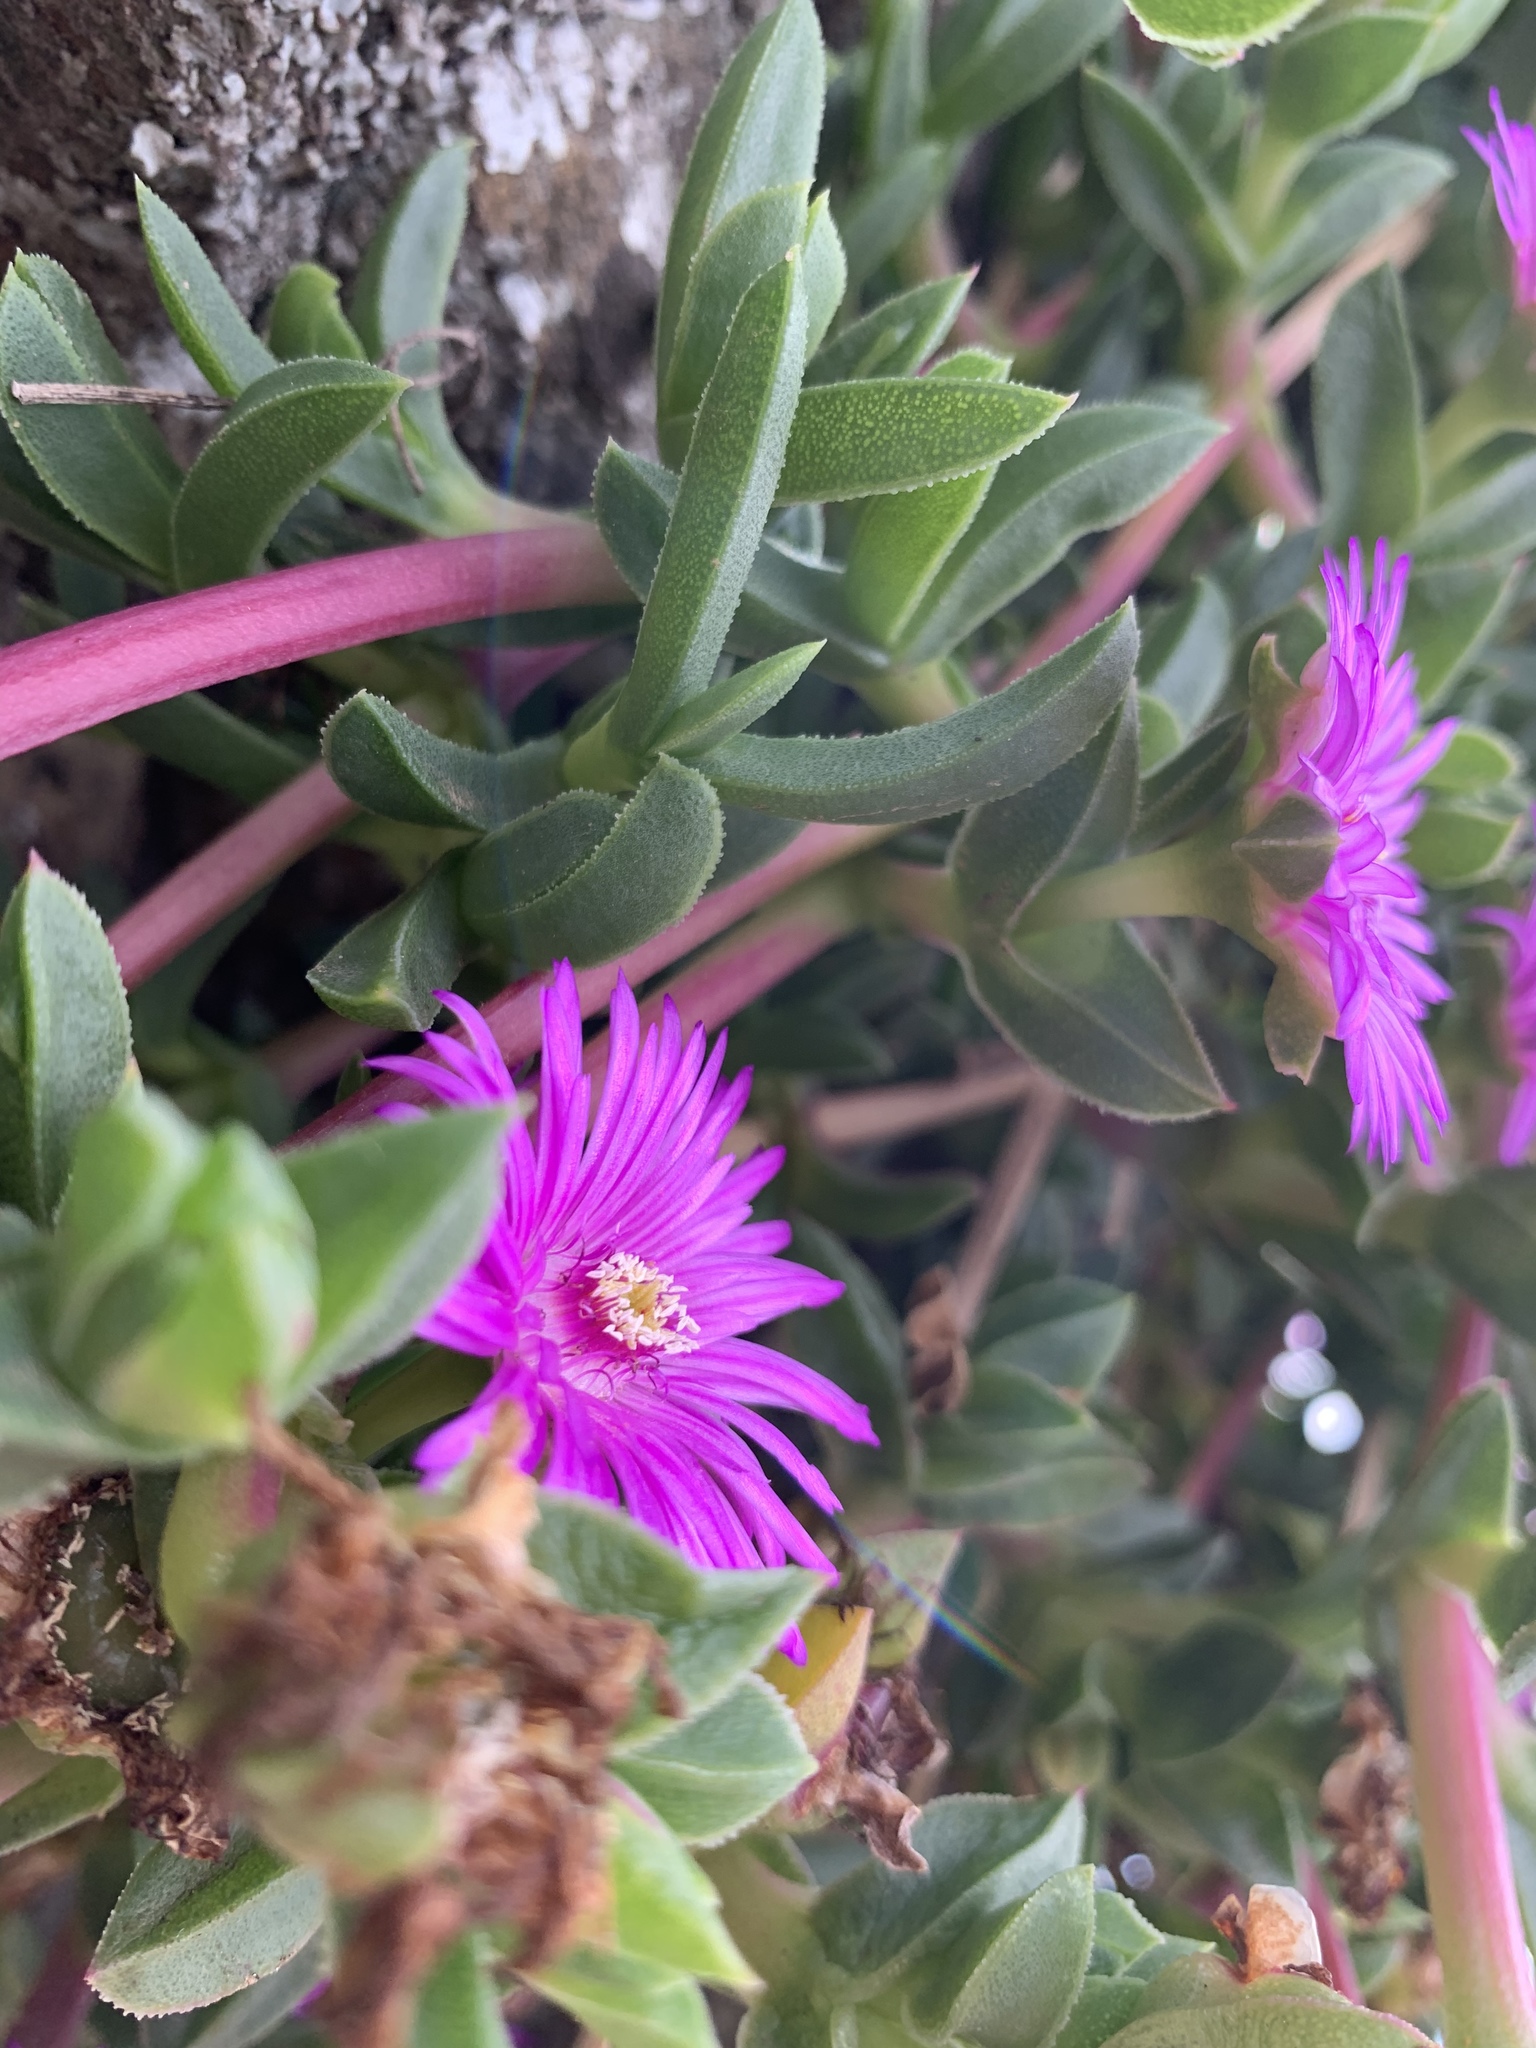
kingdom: Plantae
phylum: Tracheophyta
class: Magnoliopsida
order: Caryophyllales
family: Aizoaceae
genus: Ruschia
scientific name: Ruschia rubricaulis
